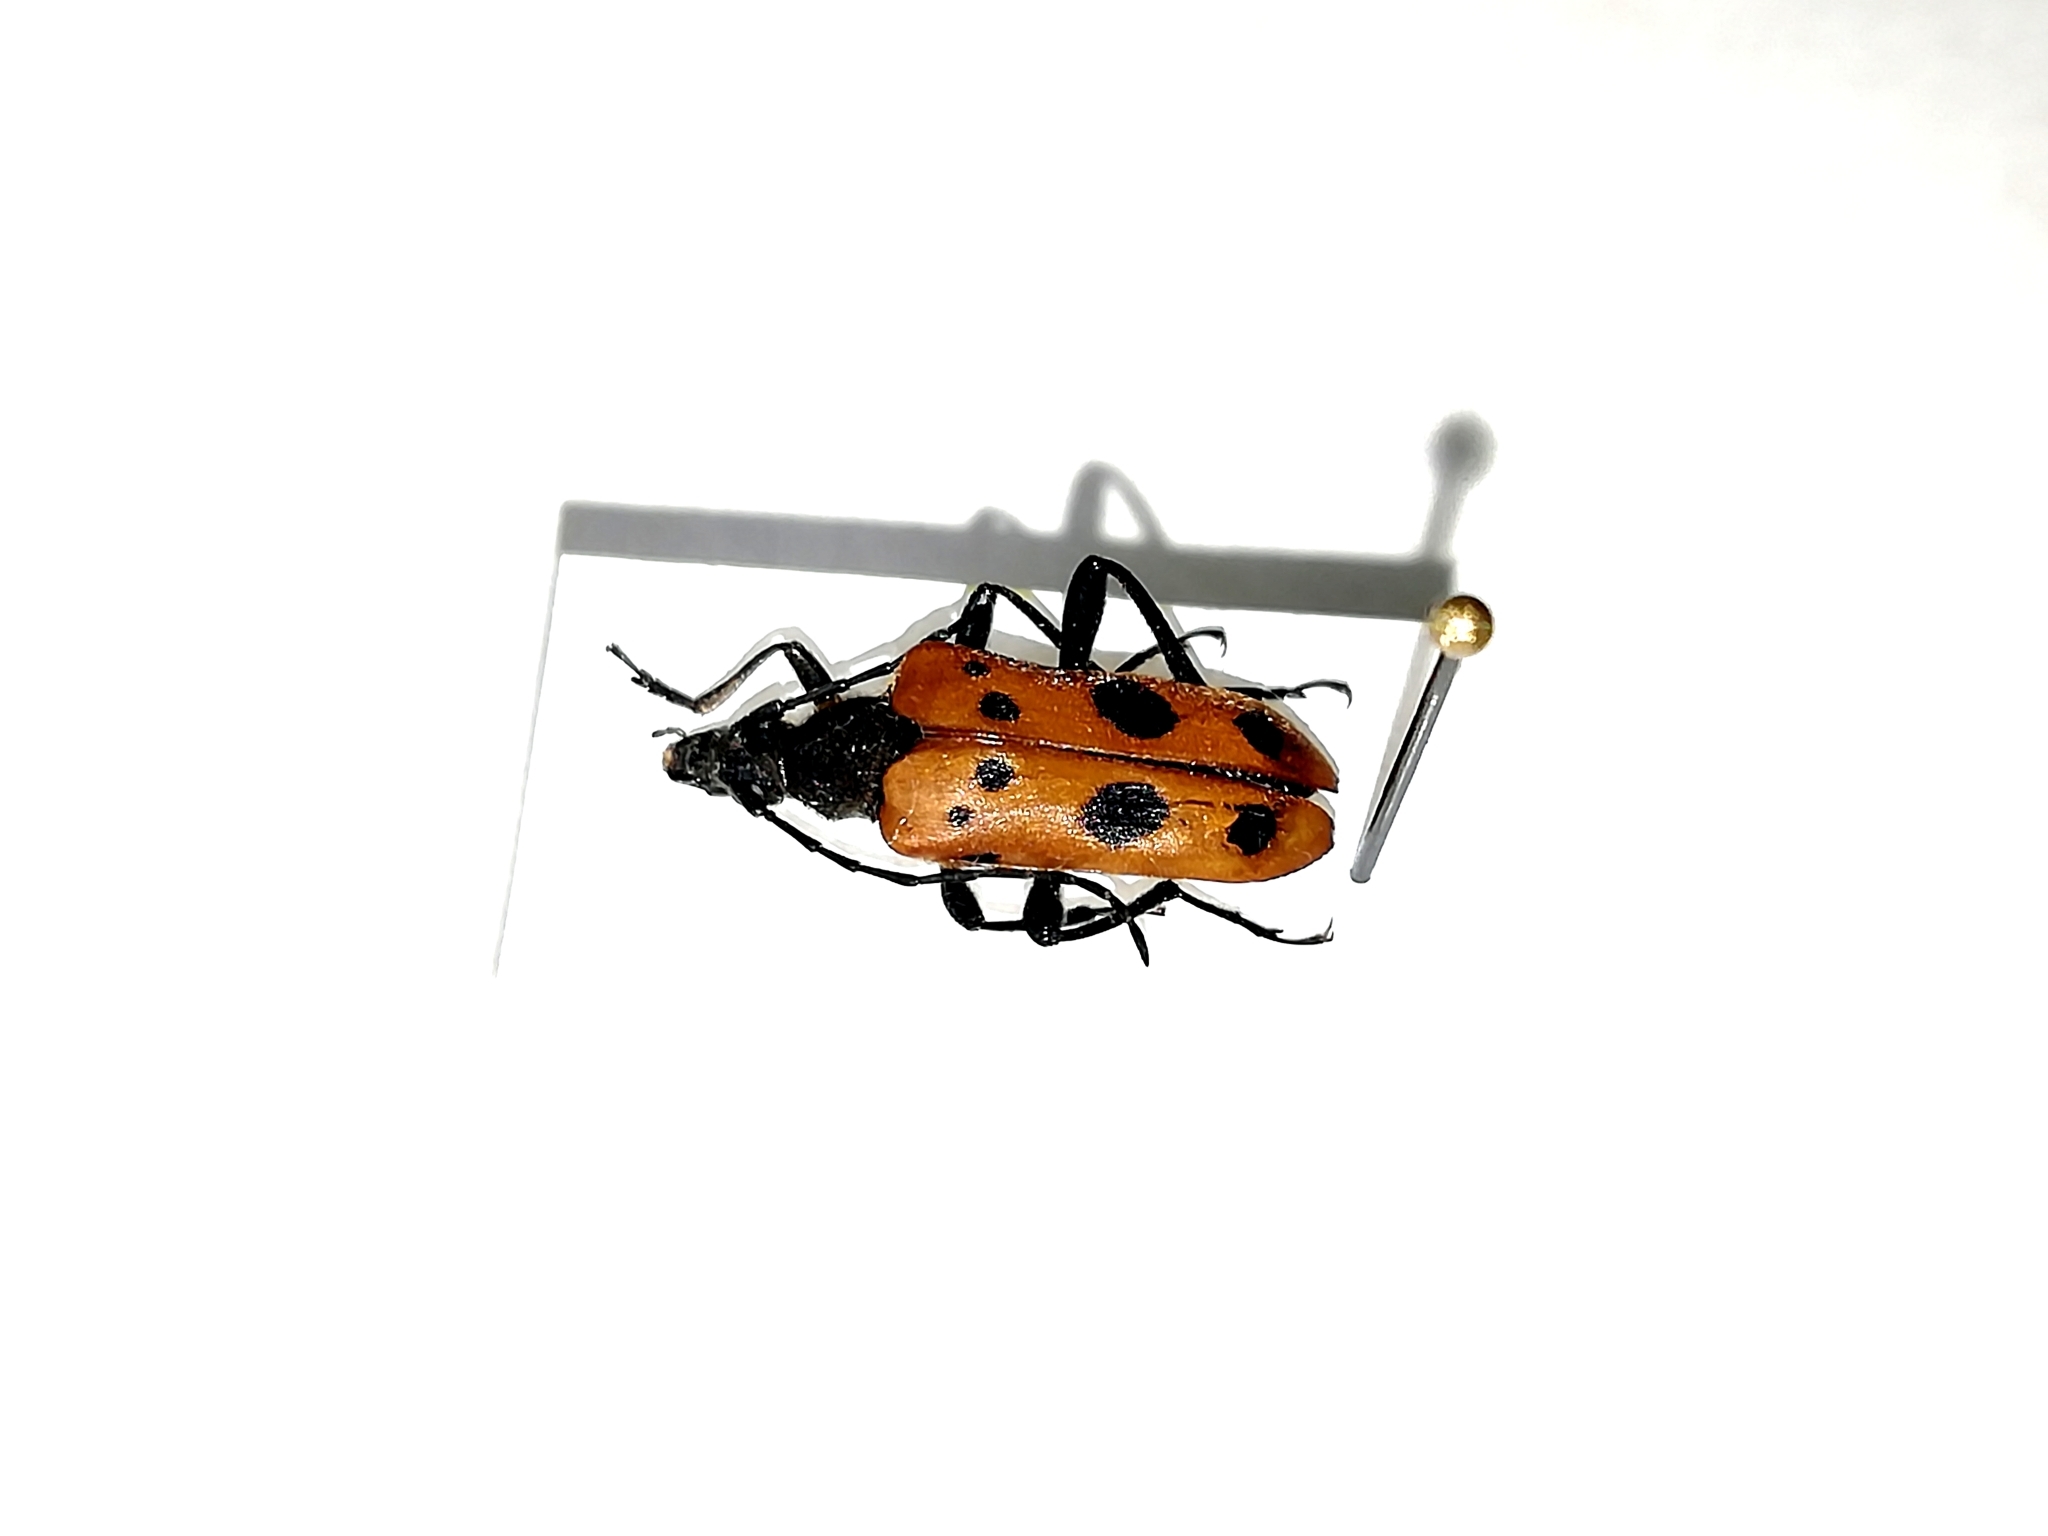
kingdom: Animalia
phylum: Arthropoda
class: Insecta
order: Coleoptera
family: Cerambycidae
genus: Oedecnema
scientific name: Oedecnema gebleri
